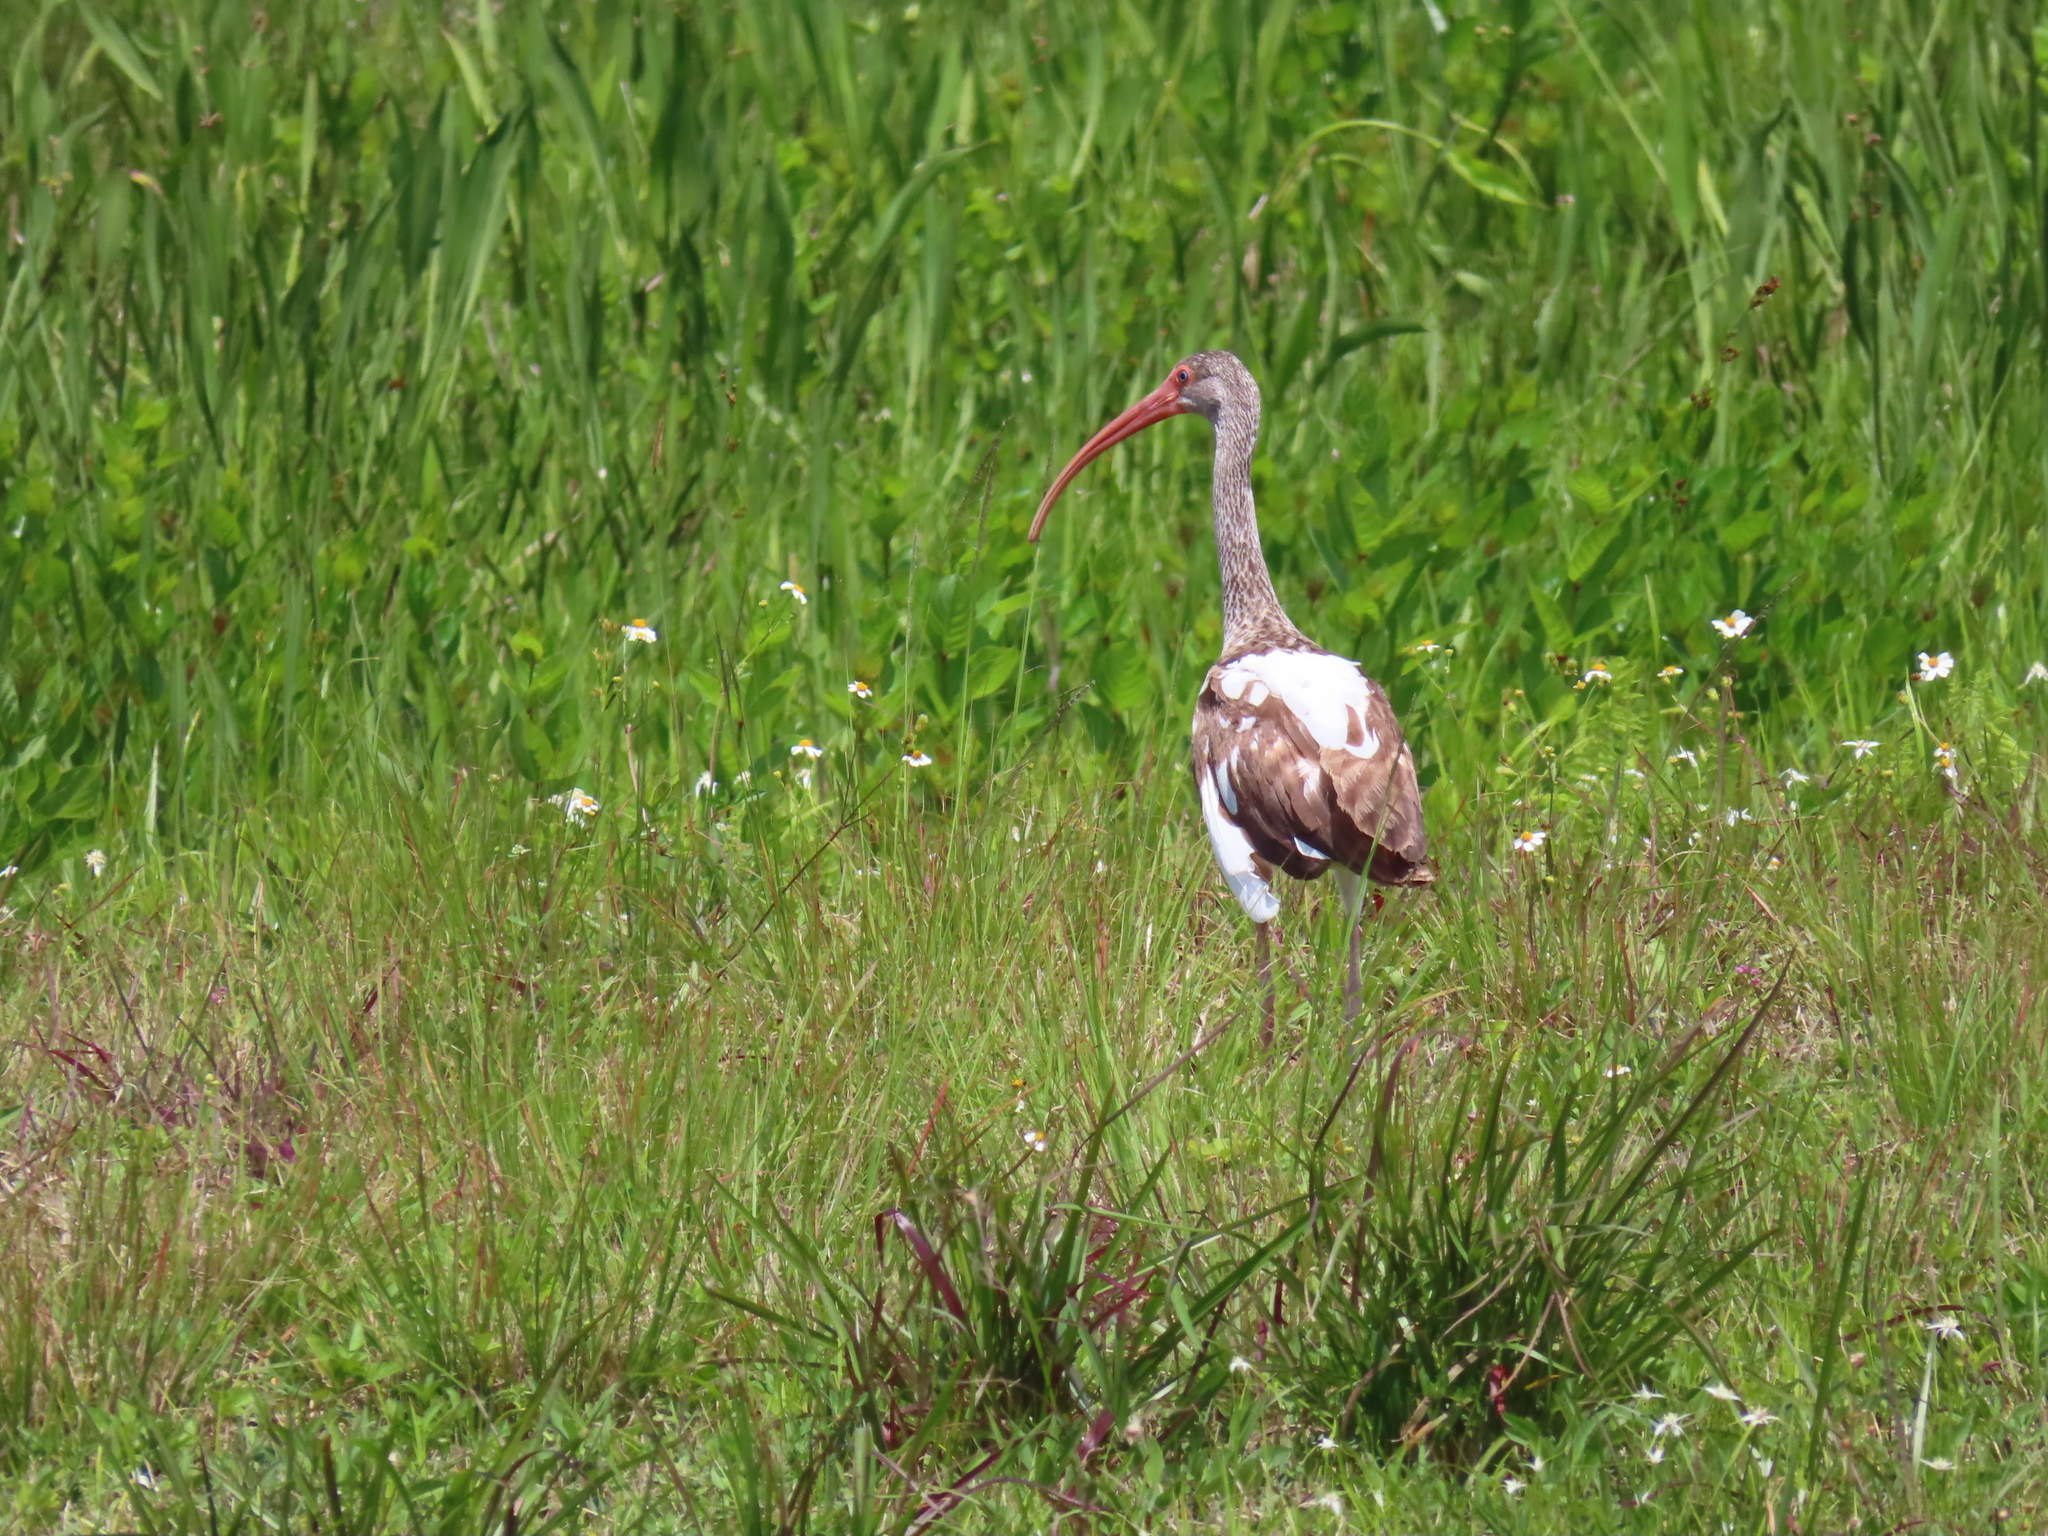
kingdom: Animalia
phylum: Chordata
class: Aves
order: Pelecaniformes
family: Threskiornithidae
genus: Eudocimus
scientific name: Eudocimus albus
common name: White ibis
